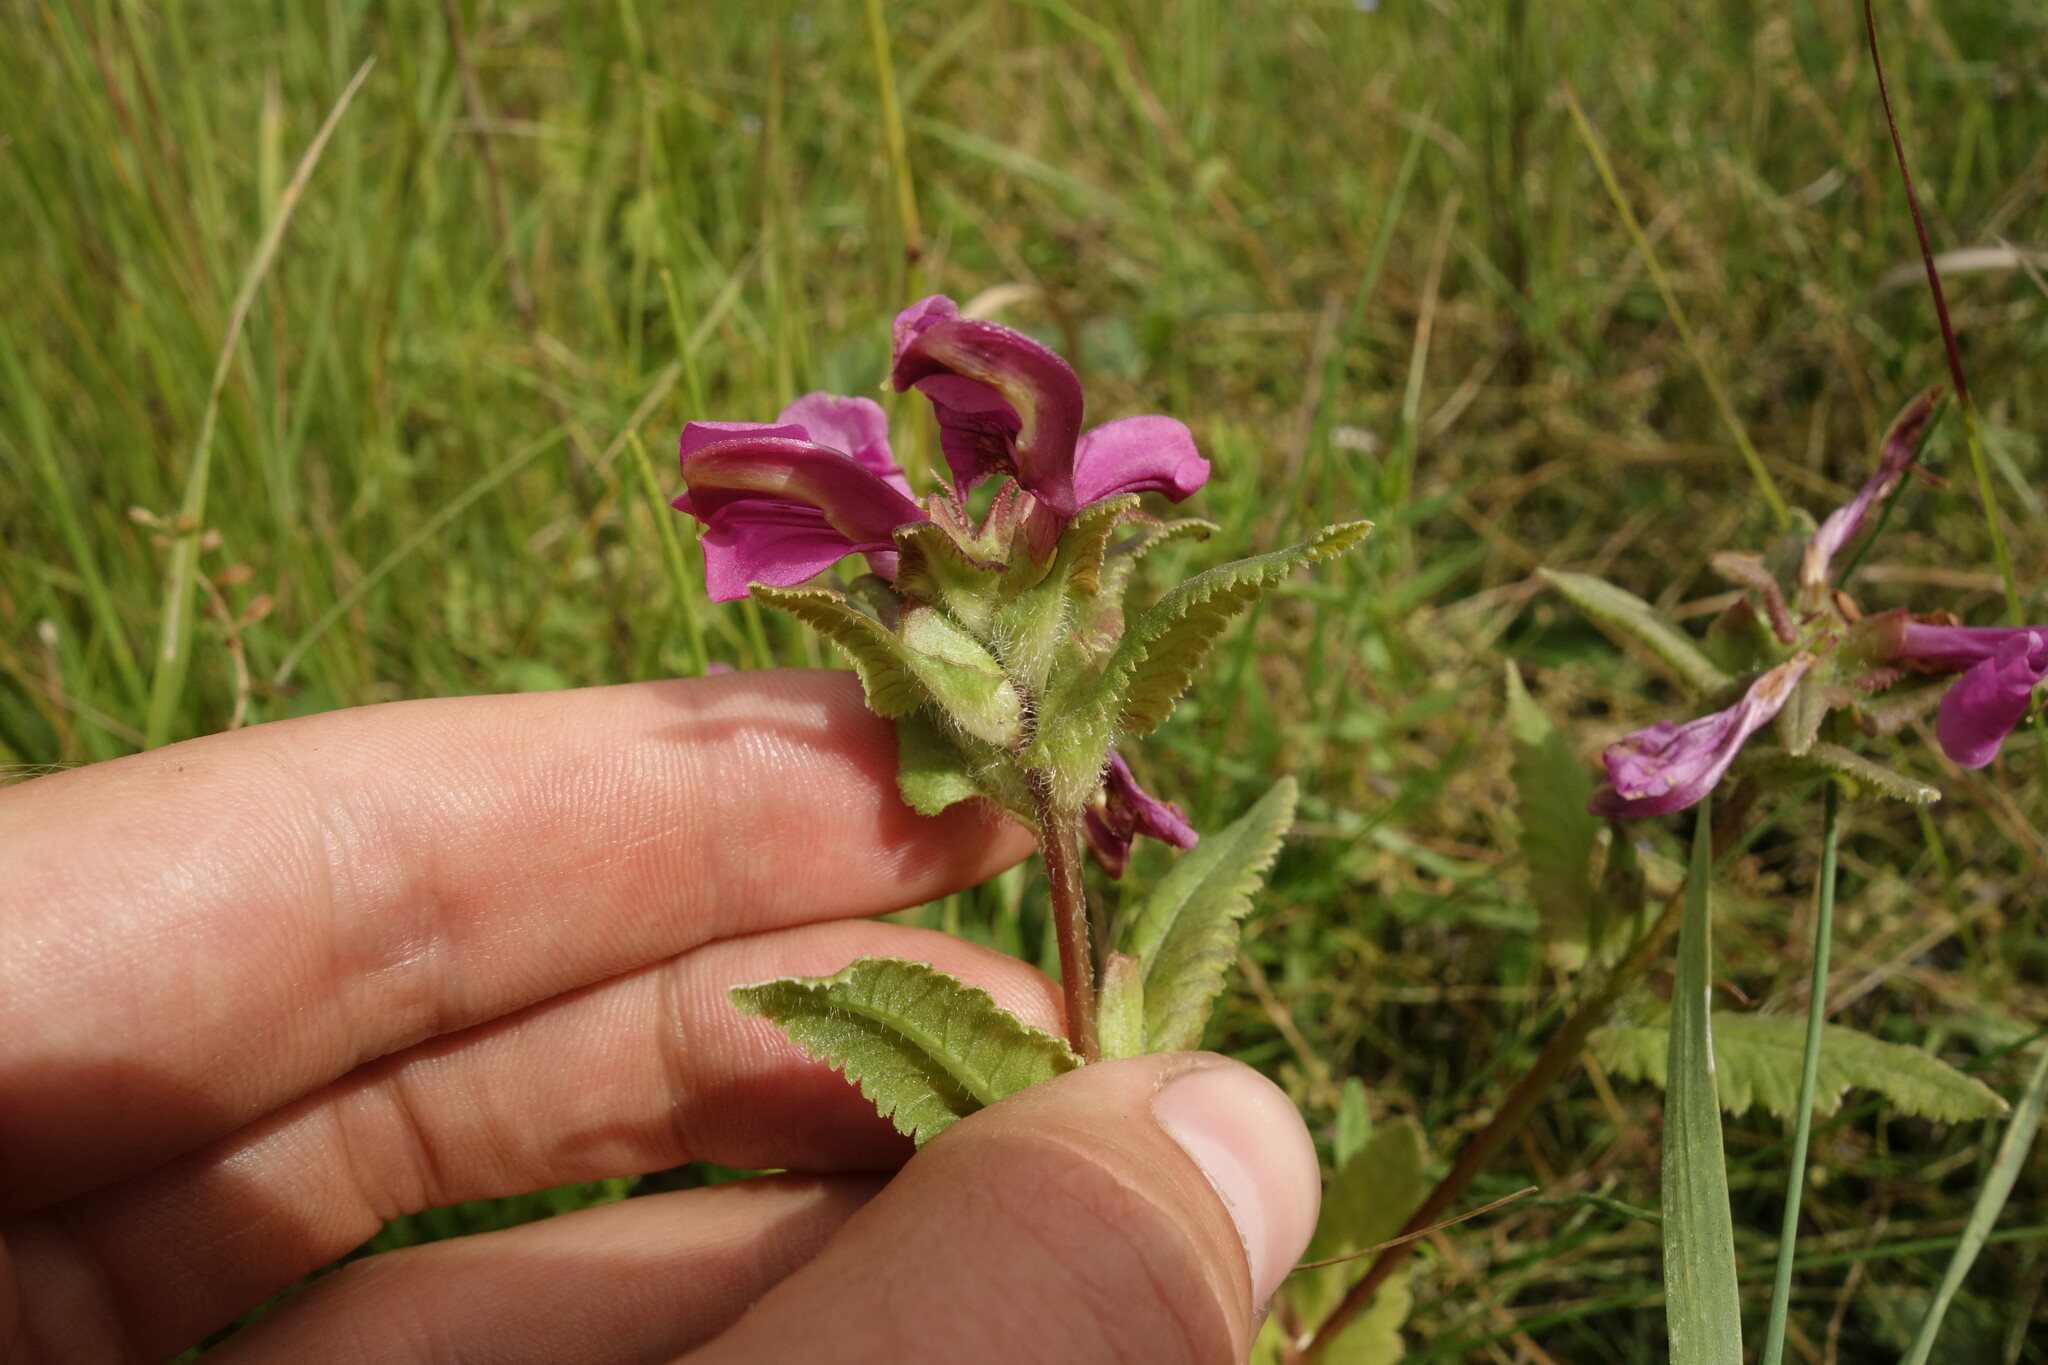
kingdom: Plantae
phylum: Tracheophyta
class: Magnoliopsida
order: Lamiales
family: Orobanchaceae
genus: Pedicularis
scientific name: Pedicularis resupinata
